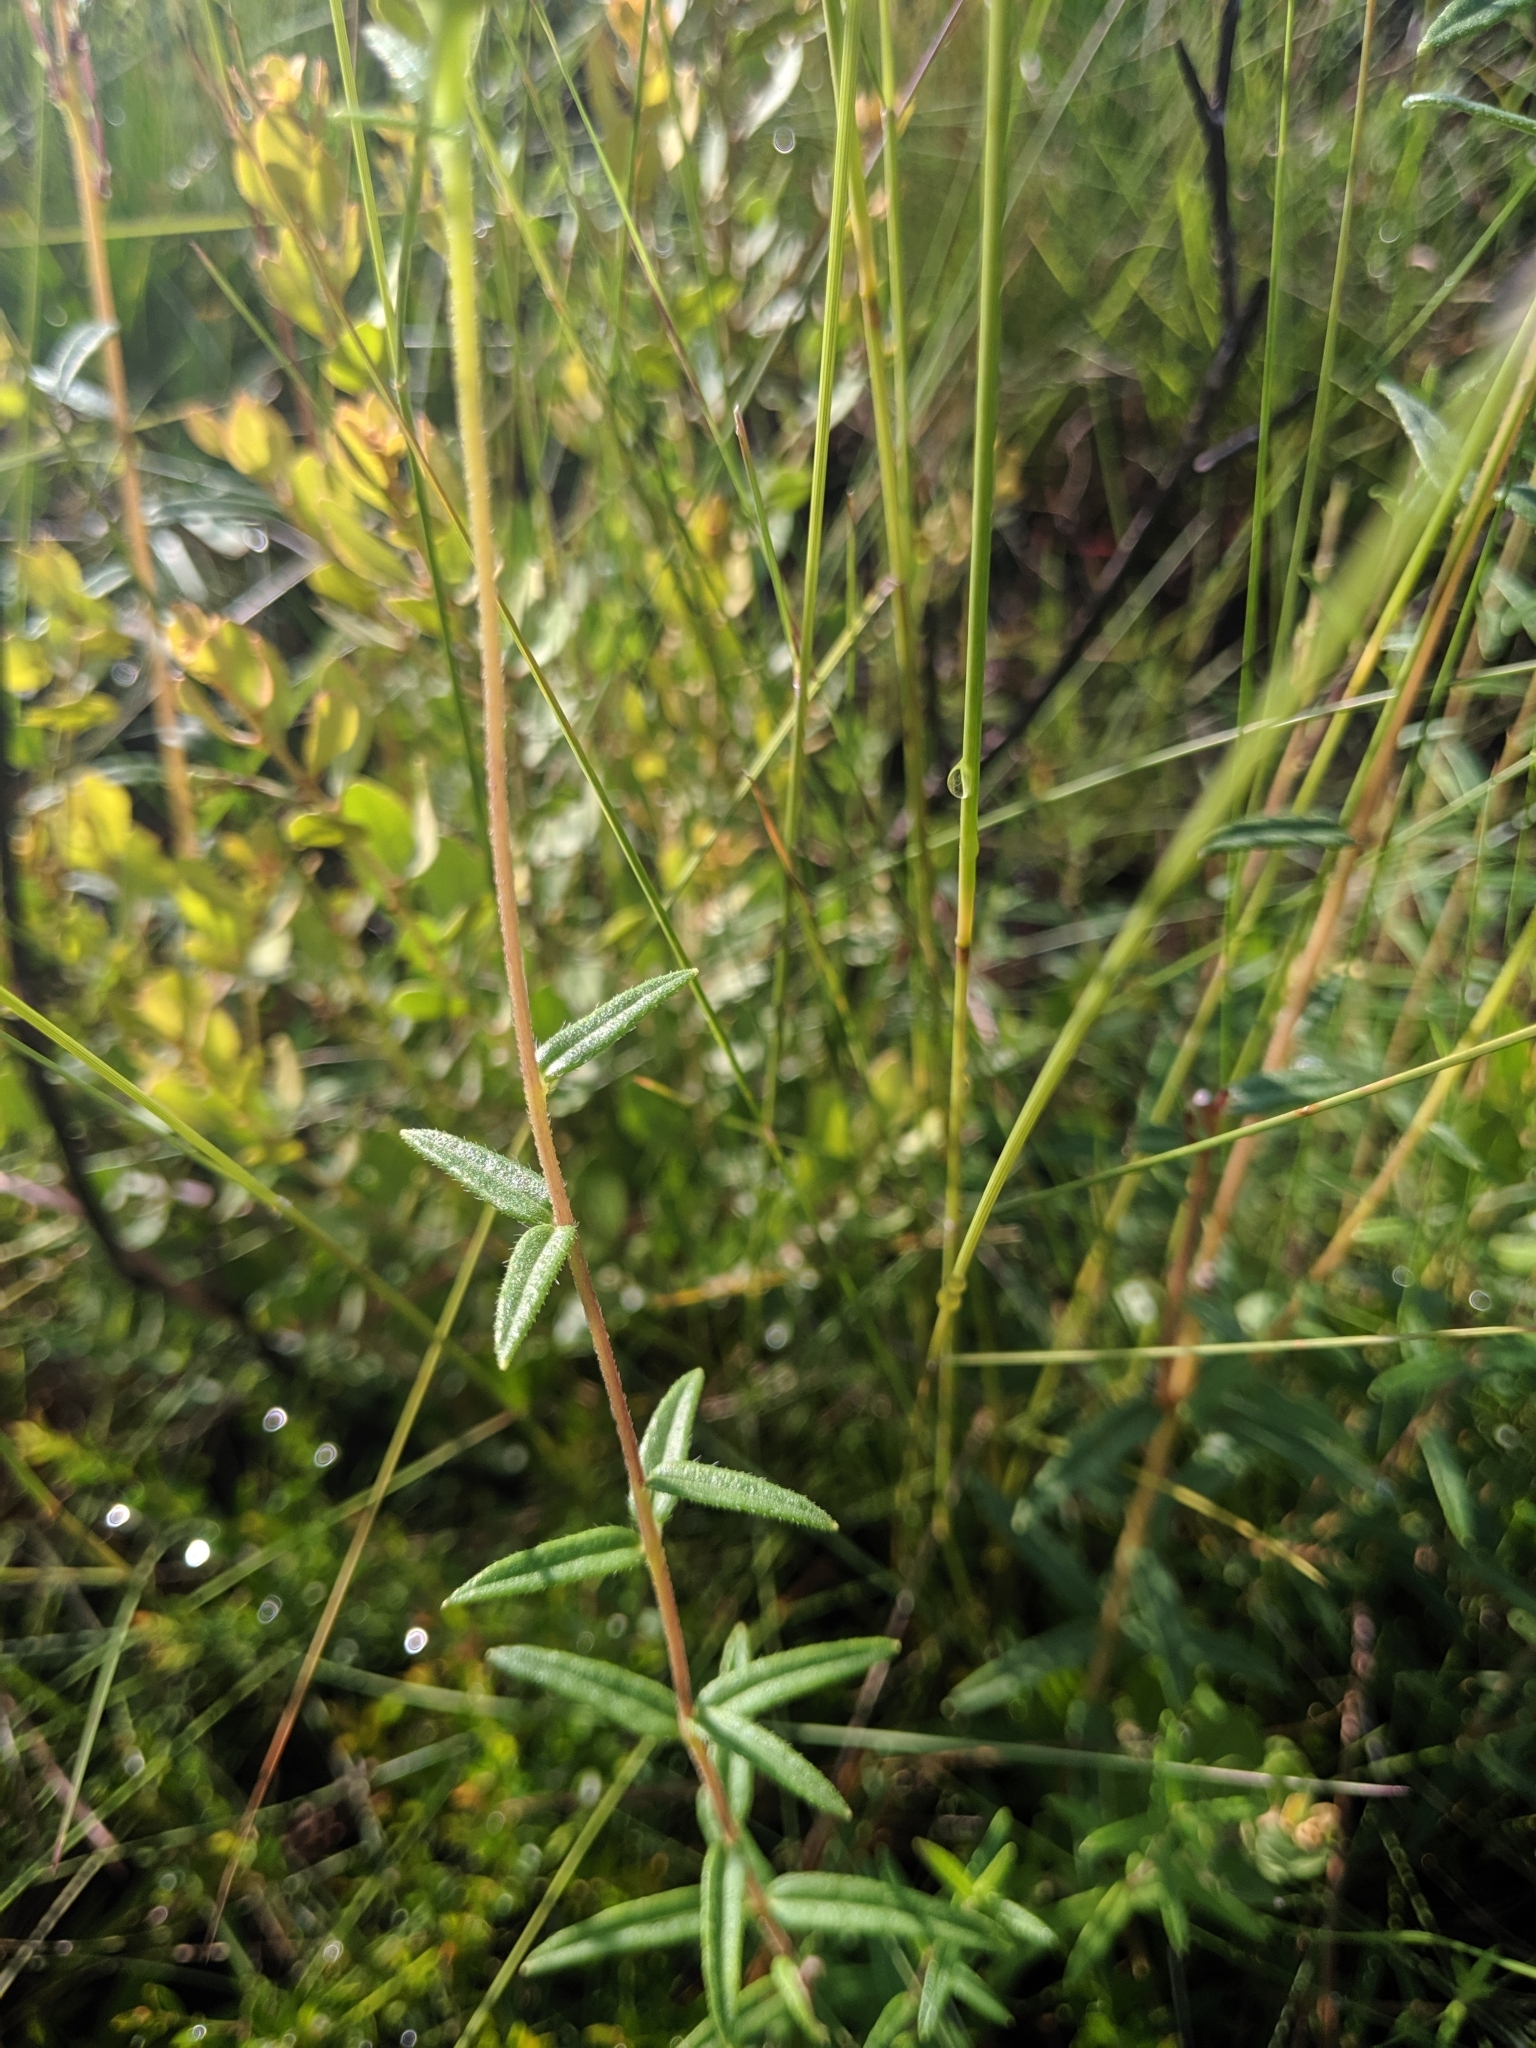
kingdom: Plantae
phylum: Tracheophyta
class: Magnoliopsida
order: Asterales
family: Asteraceae
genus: Phoebanthus
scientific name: Phoebanthus grandiflora
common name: Florida false sunflower
